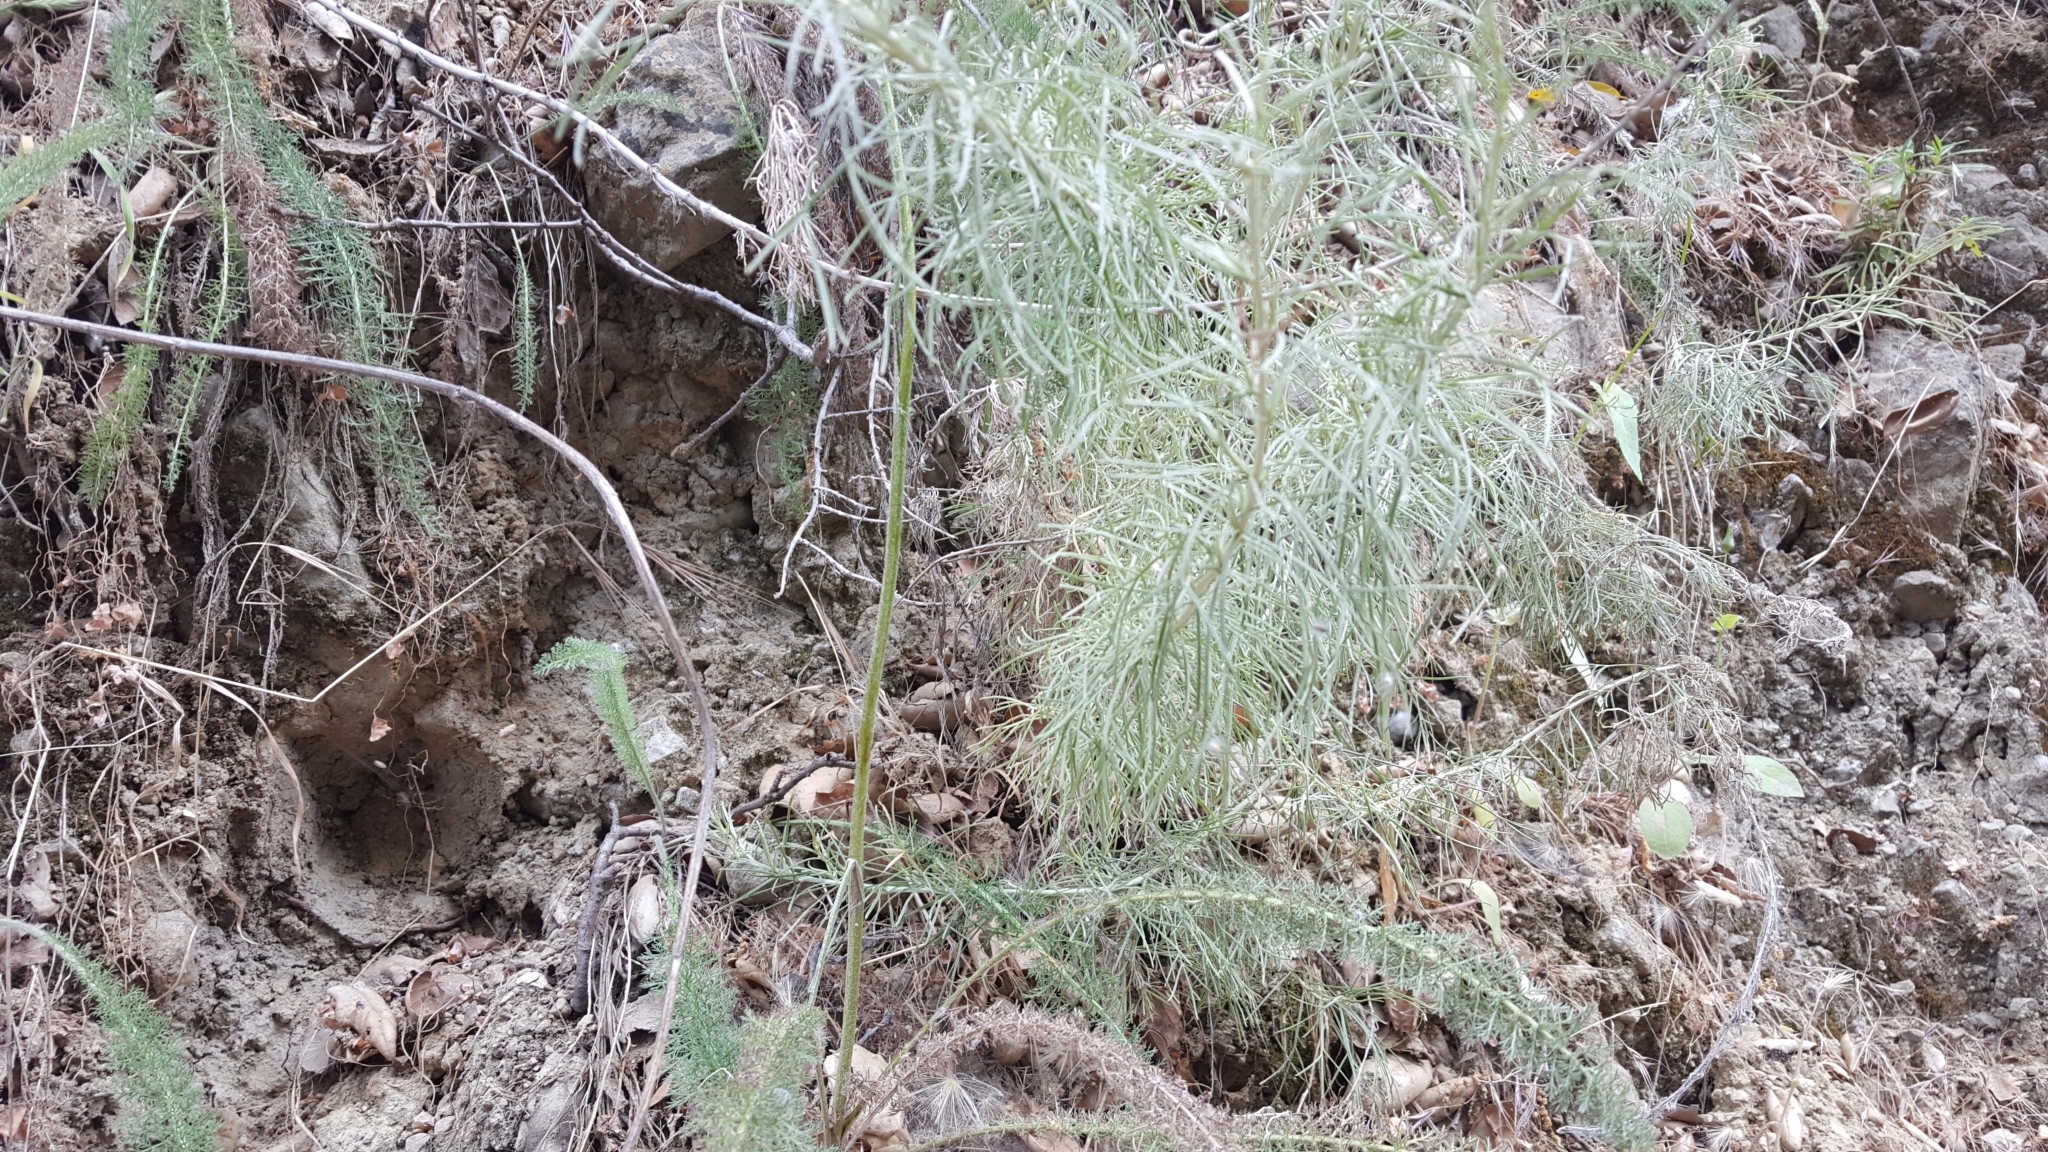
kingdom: Plantae
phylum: Tracheophyta
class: Magnoliopsida
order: Asterales
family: Asteraceae
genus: Artemisia
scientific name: Artemisia californica
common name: California sagebrush
